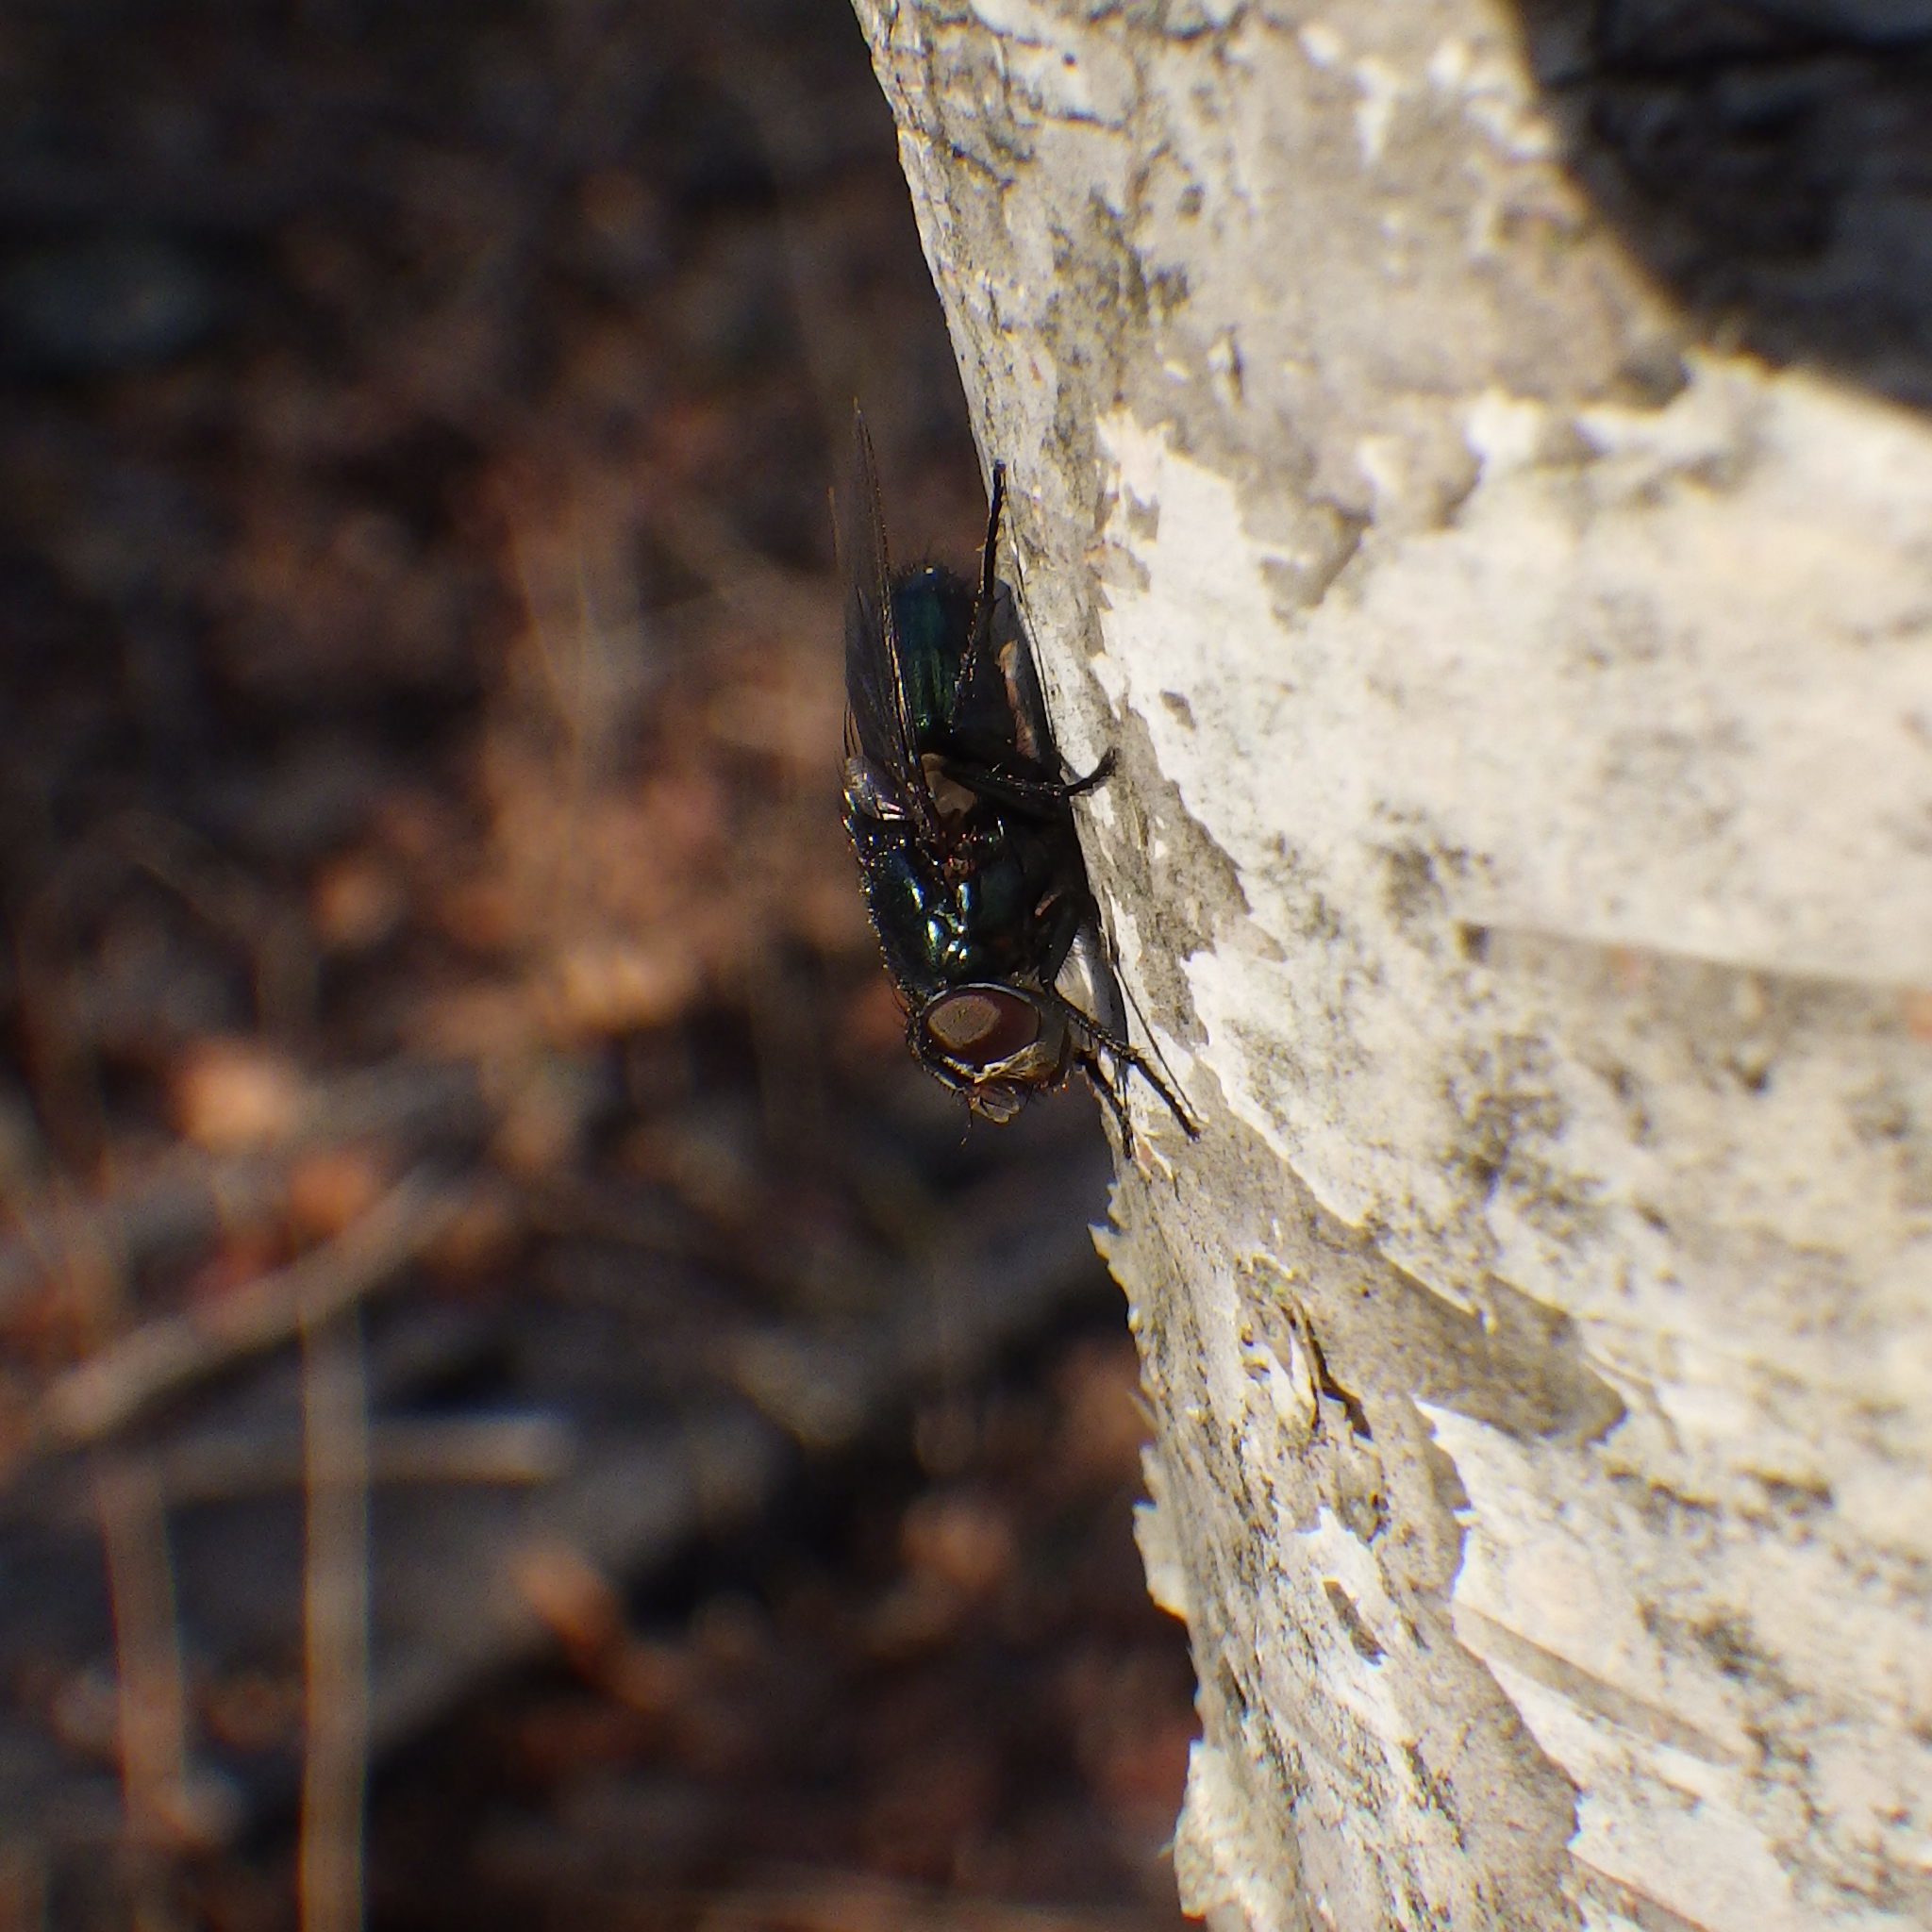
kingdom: Animalia
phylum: Arthropoda
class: Insecta
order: Diptera
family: Calliphoridae
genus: Phormia
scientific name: Phormia regina
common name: Black blow fly
